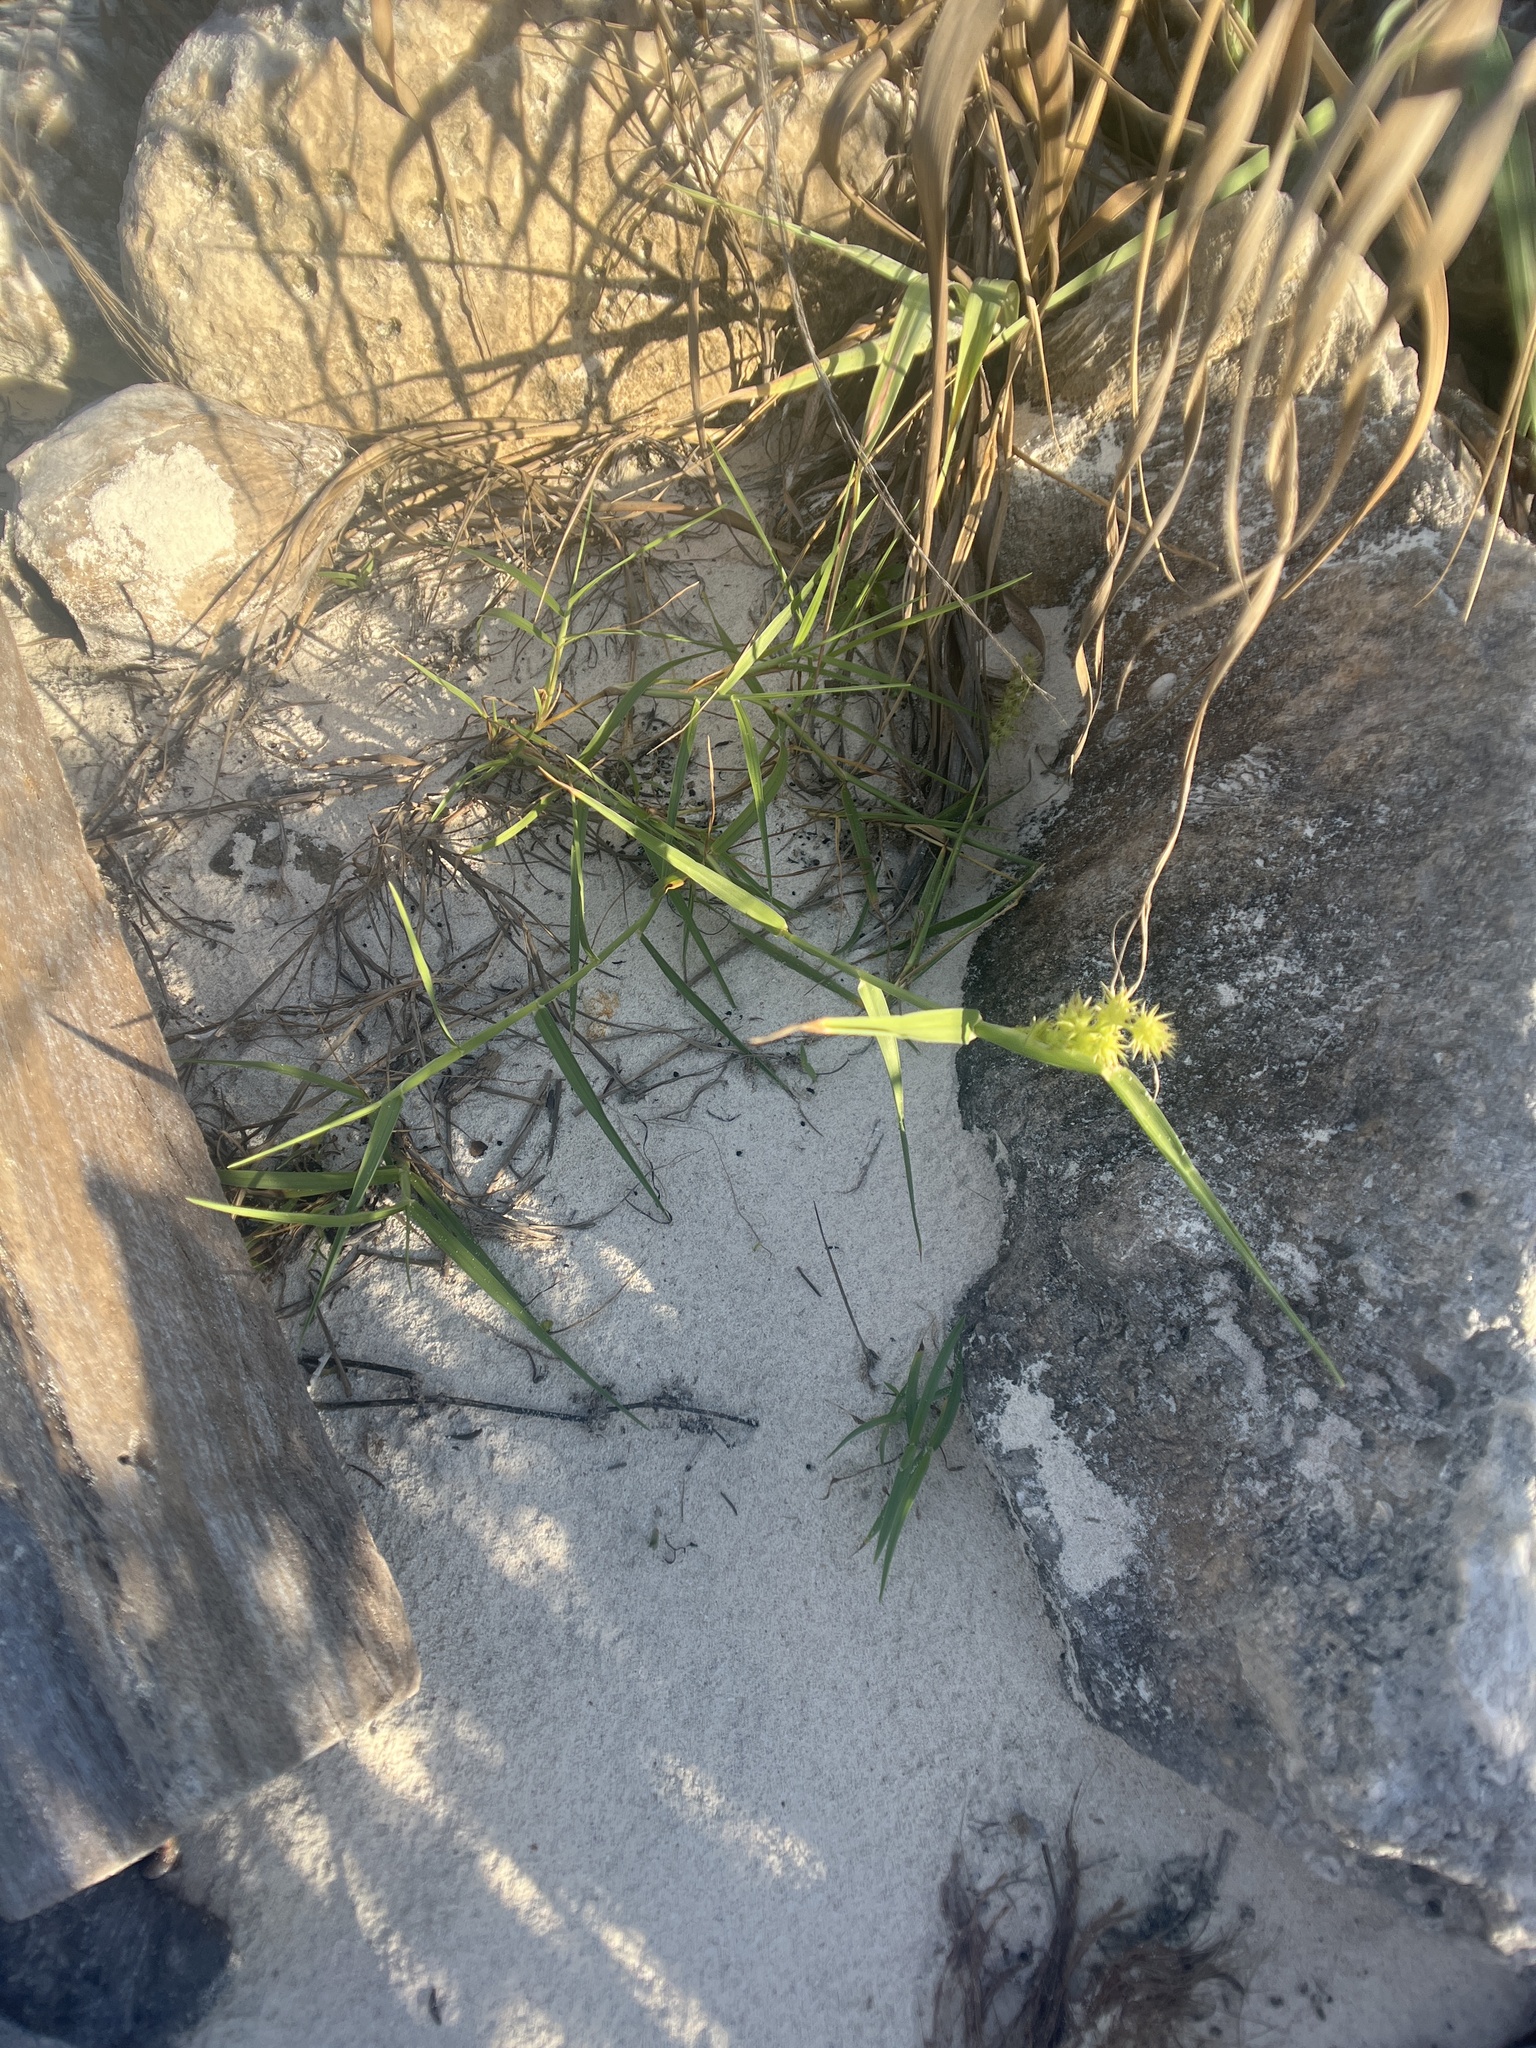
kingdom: Plantae
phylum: Tracheophyta
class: Liliopsida
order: Poales
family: Poaceae
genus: Cenchrus
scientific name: Cenchrus spinifex
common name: Coast sandbur
